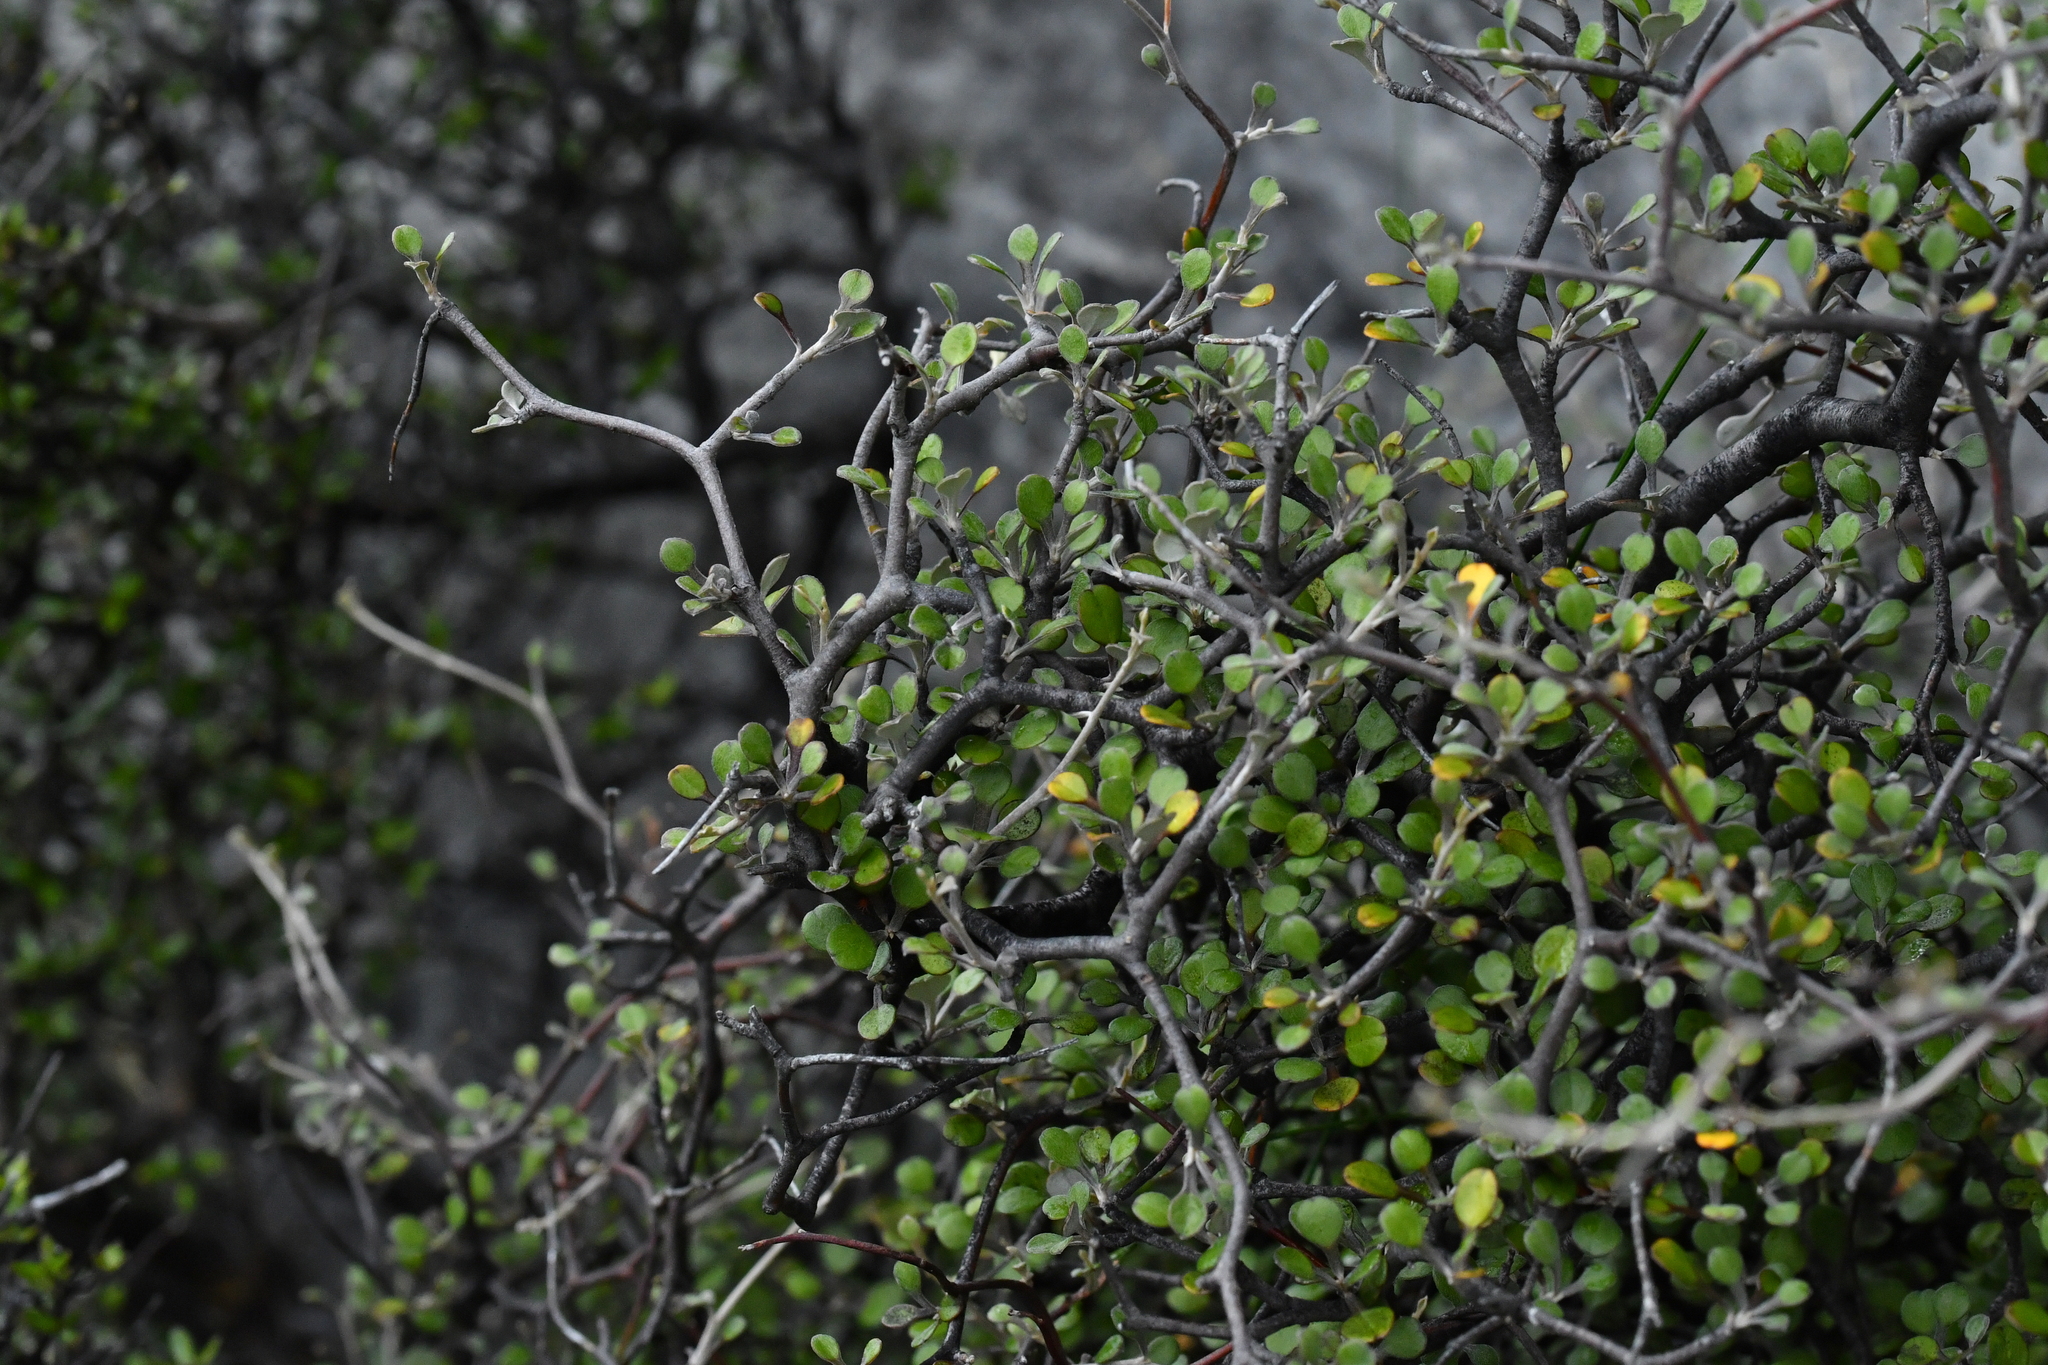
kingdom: Plantae
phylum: Tracheophyta
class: Magnoliopsida
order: Asterales
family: Argophyllaceae
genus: Corokia
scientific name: Corokia cotoneaster
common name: Wire nettingbush
